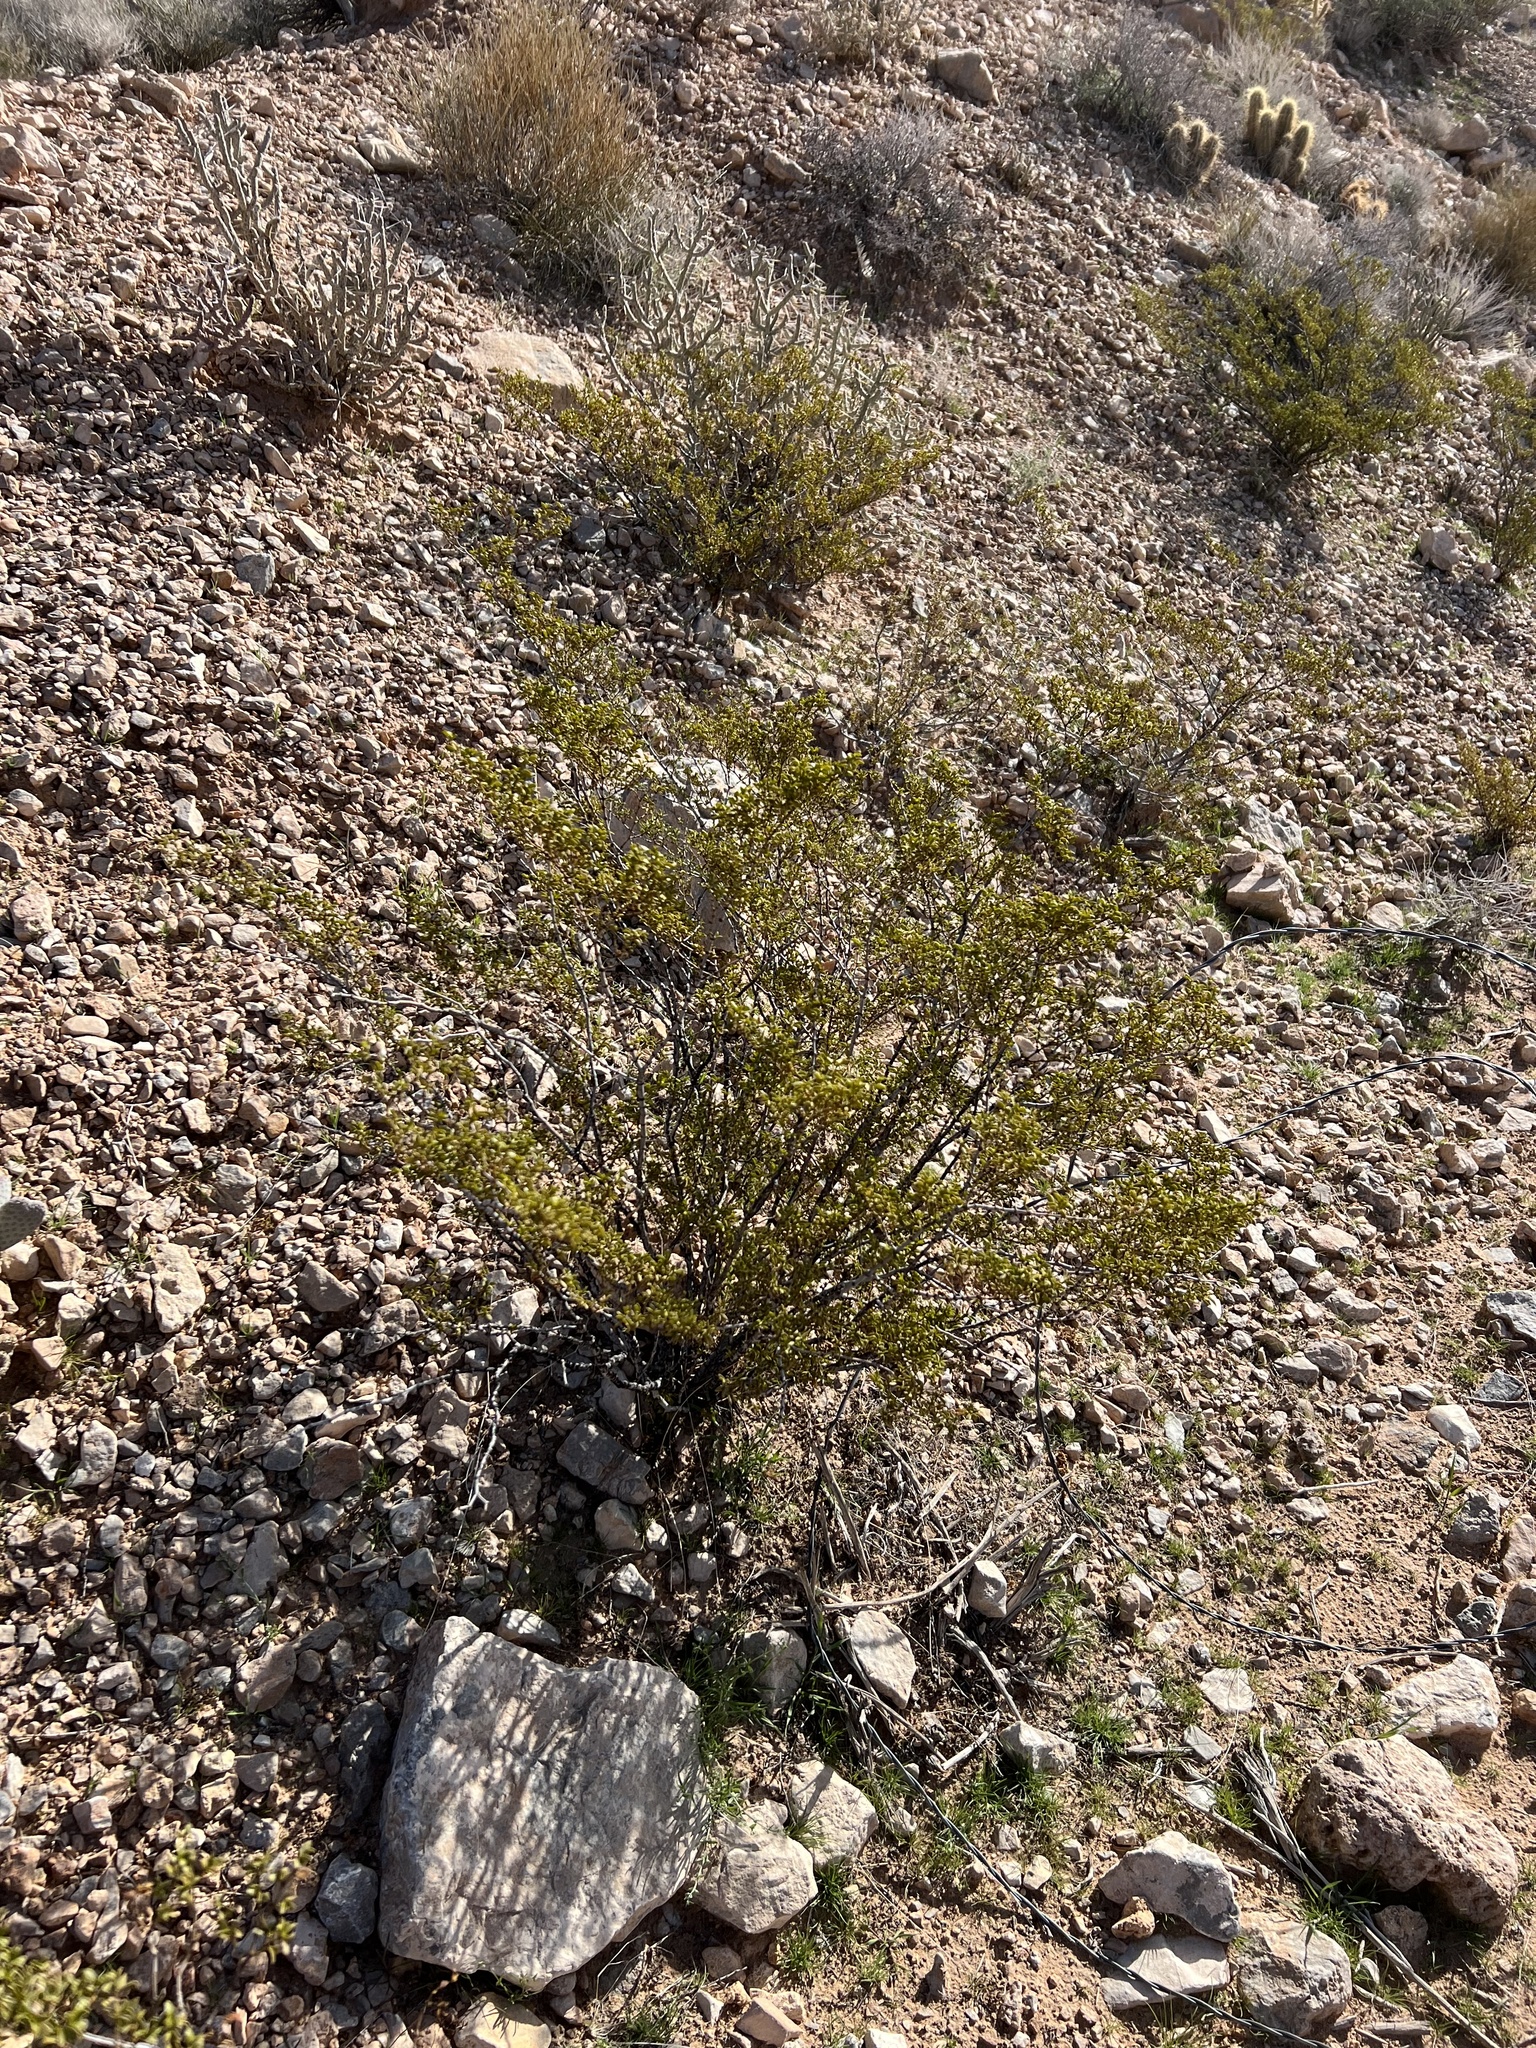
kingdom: Plantae
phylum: Tracheophyta
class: Magnoliopsida
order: Zygophyllales
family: Zygophyllaceae
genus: Larrea
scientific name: Larrea tridentata
